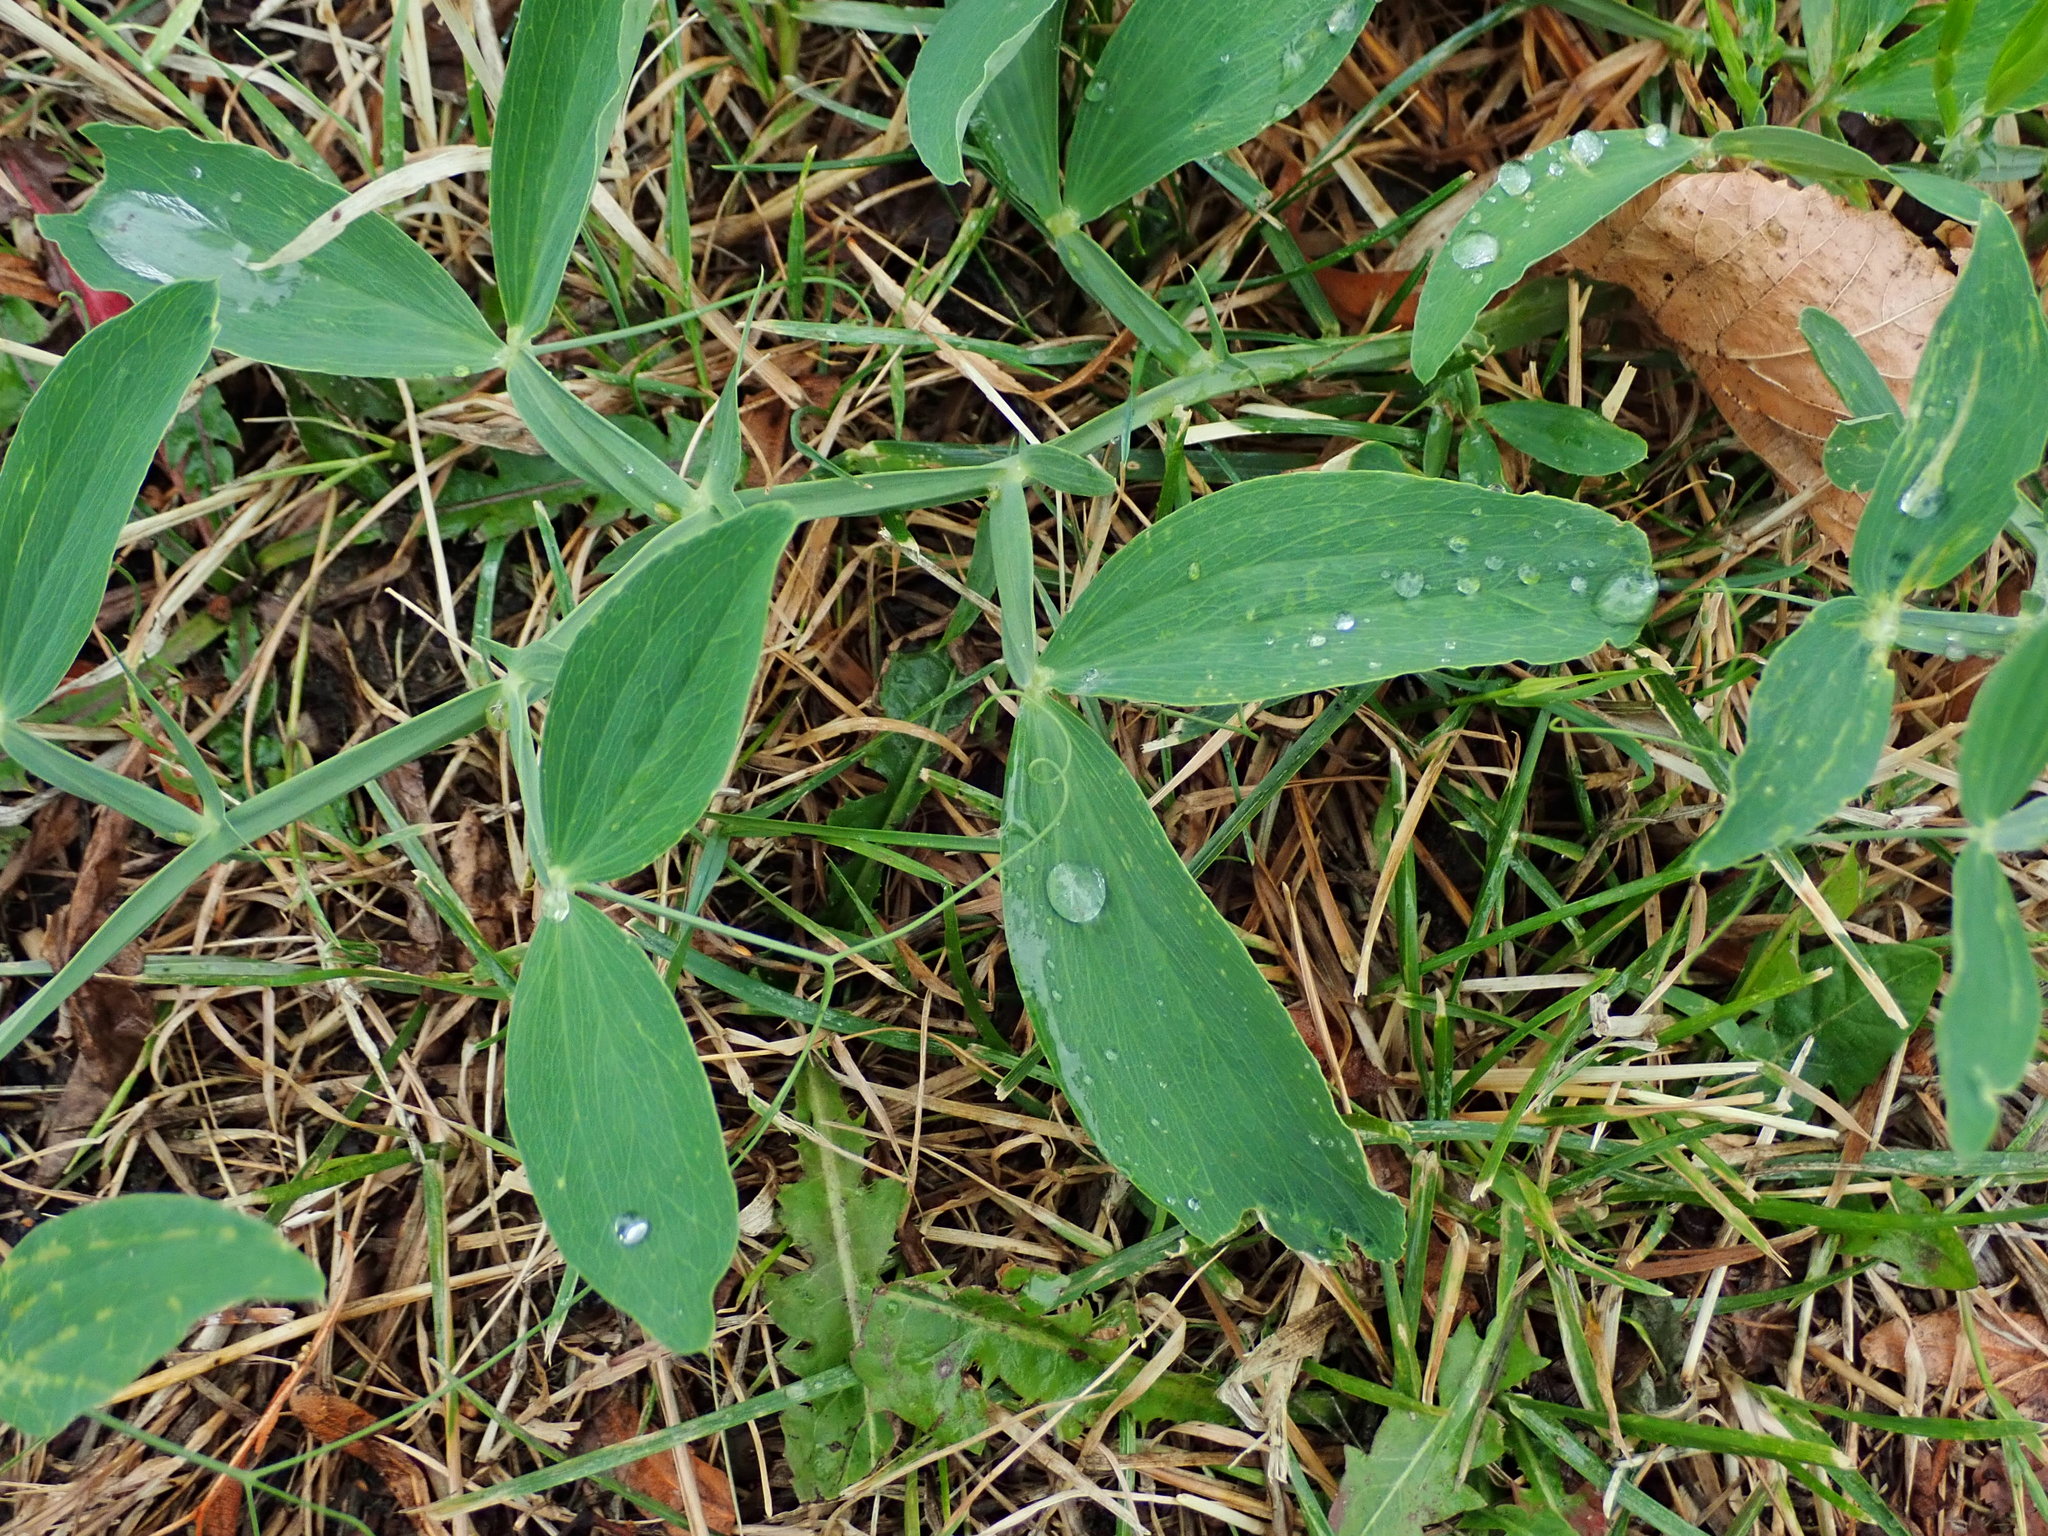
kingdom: Plantae
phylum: Tracheophyta
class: Magnoliopsida
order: Fabales
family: Fabaceae
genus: Lathyrus
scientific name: Lathyrus latifolius
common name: Perennial pea
